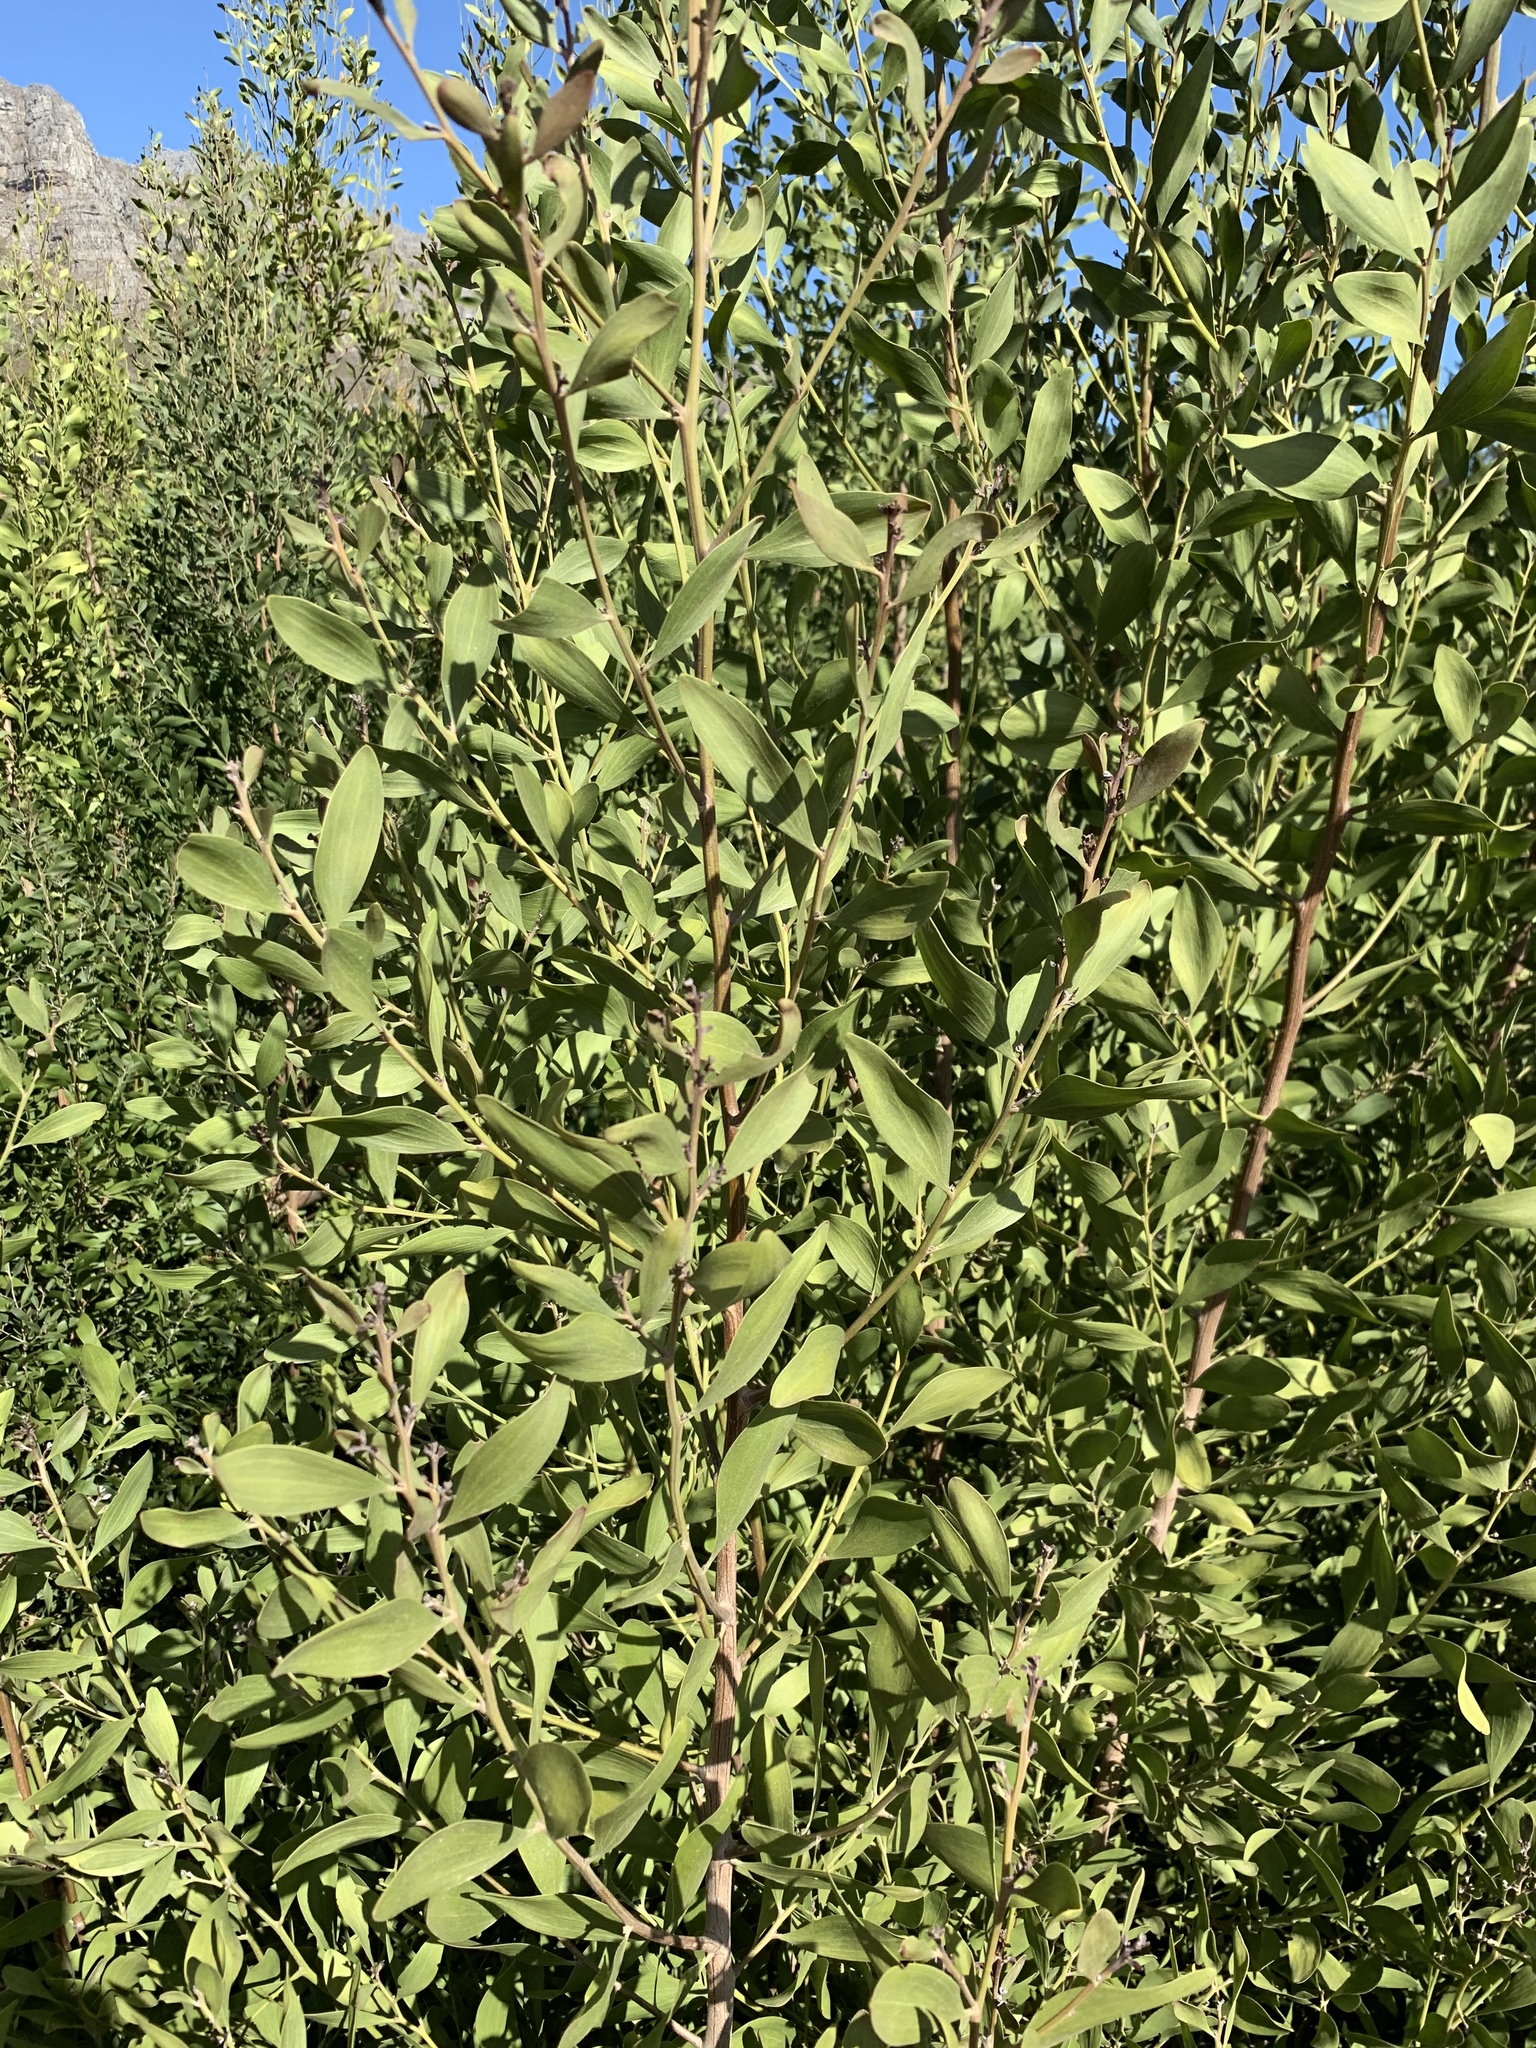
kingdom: Plantae
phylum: Tracheophyta
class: Magnoliopsida
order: Fabales
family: Fabaceae
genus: Acacia
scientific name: Acacia melanoxylon
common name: Blackwood
